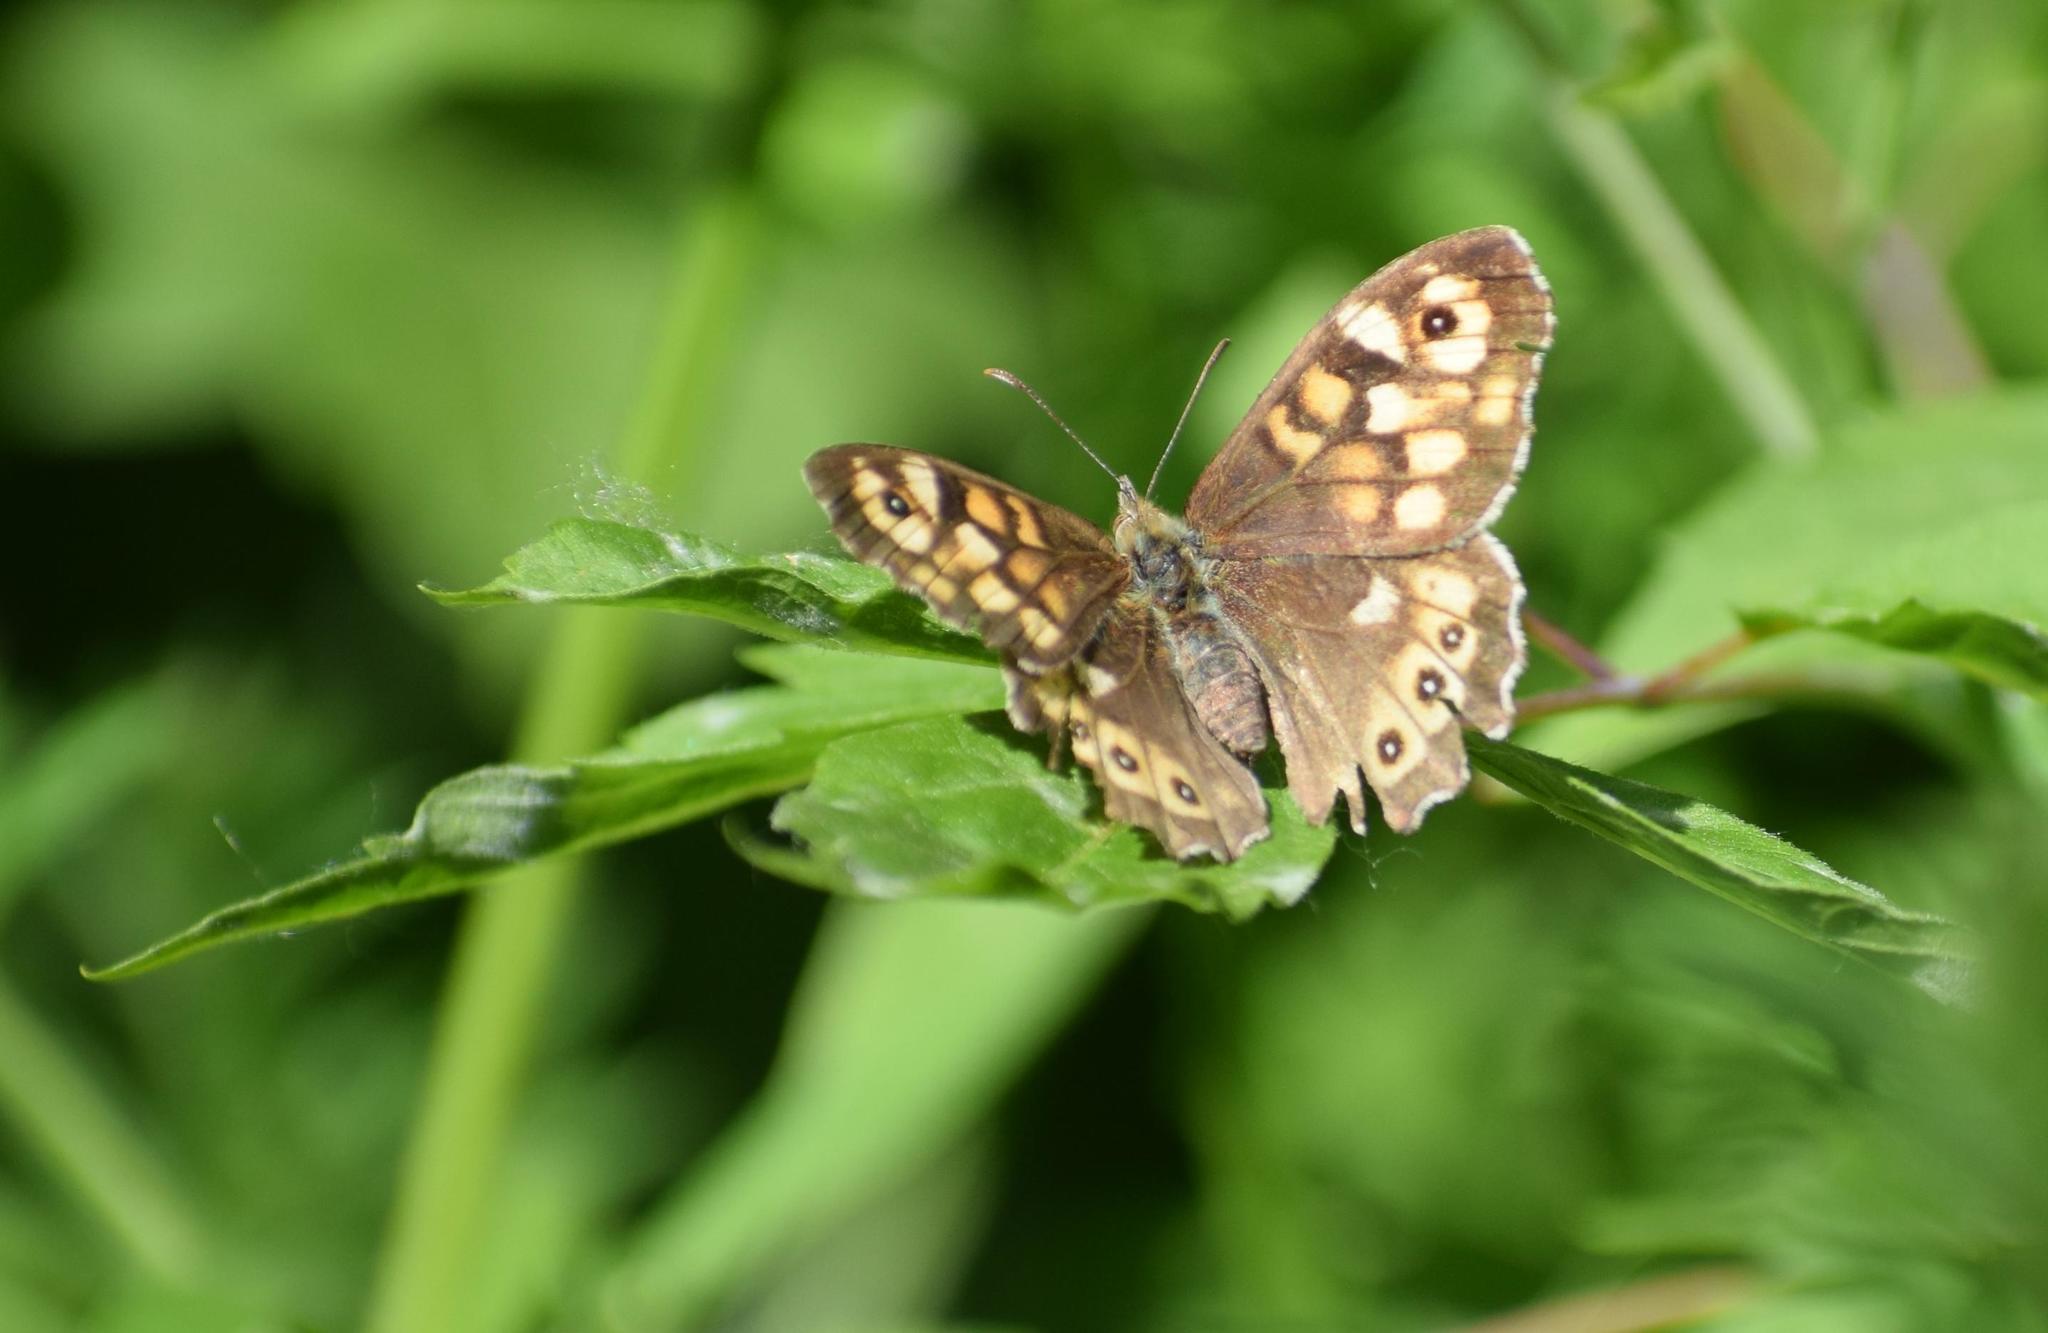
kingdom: Animalia
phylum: Arthropoda
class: Insecta
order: Lepidoptera
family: Nymphalidae
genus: Pararge
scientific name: Pararge aegeria
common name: Speckled wood
